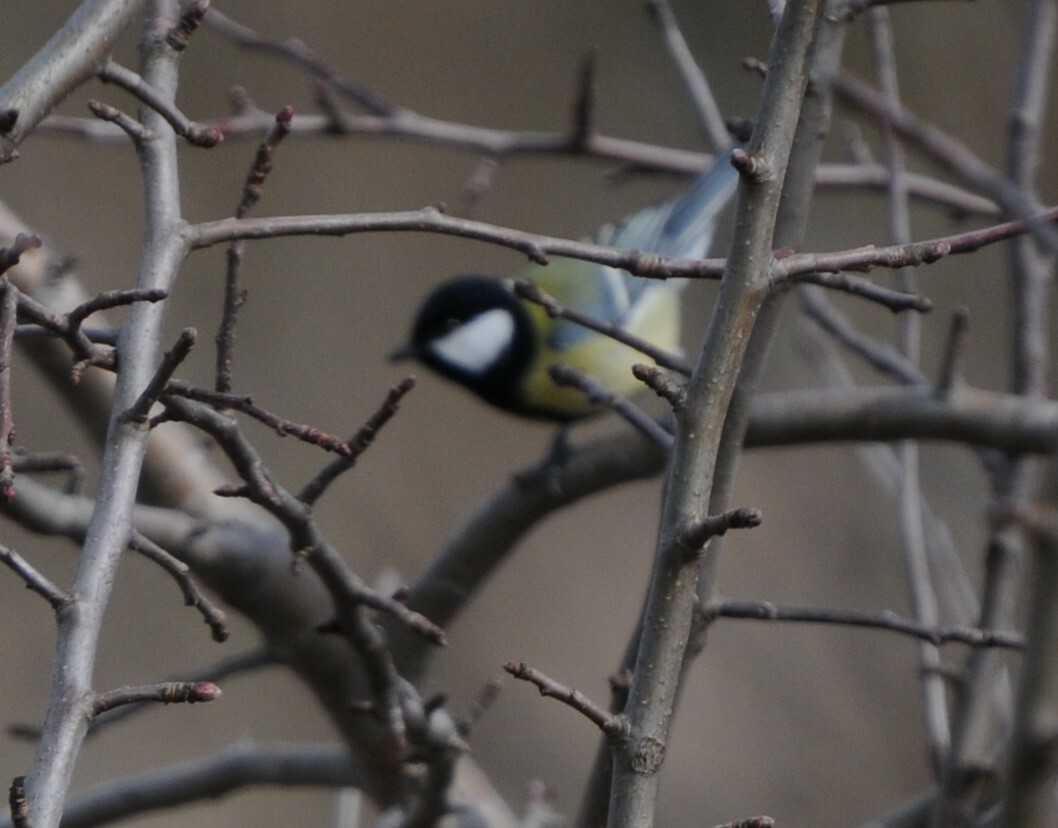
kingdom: Animalia
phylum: Chordata
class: Aves
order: Passeriformes
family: Paridae
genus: Parus
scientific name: Parus major
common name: Great tit
